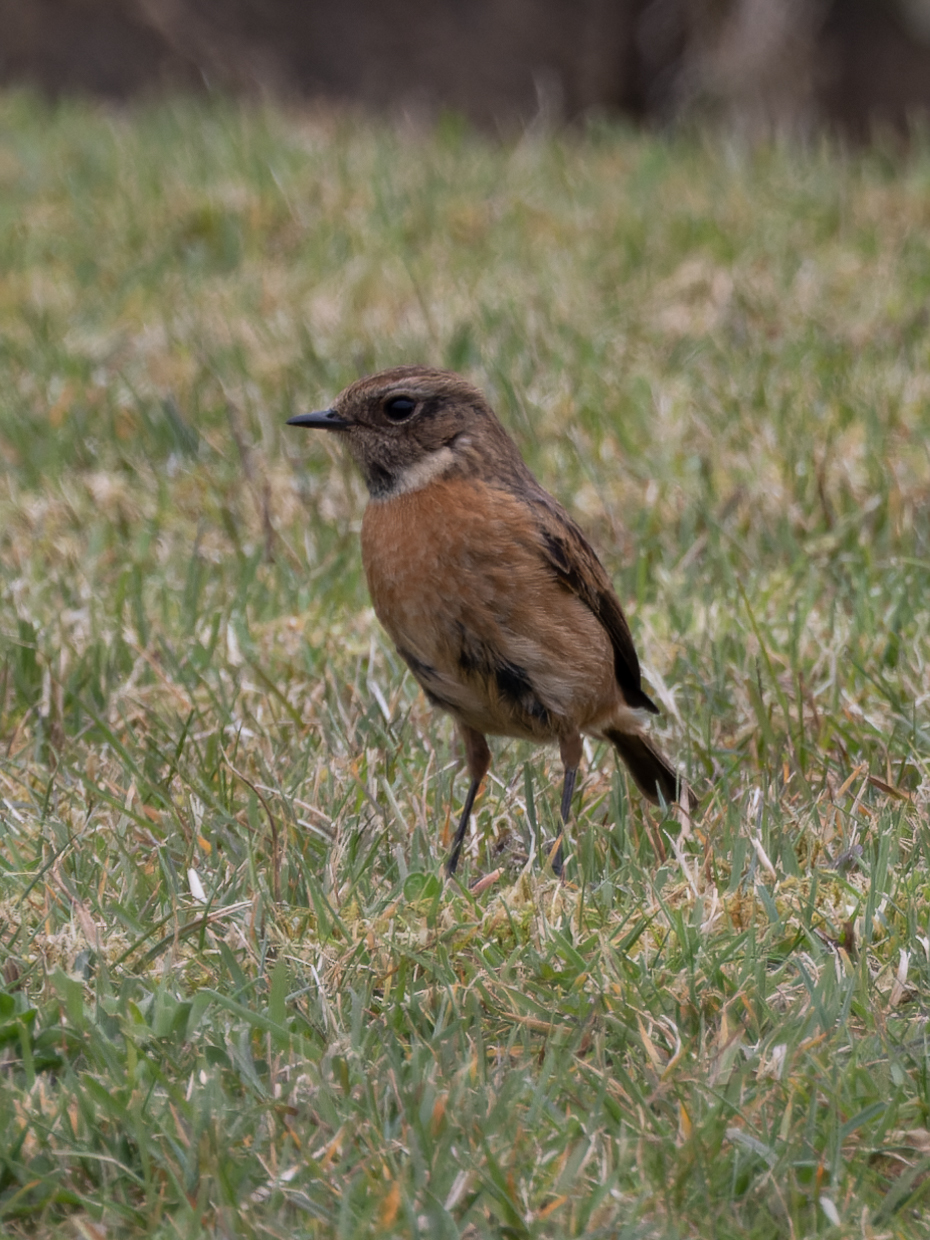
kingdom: Animalia
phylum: Chordata
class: Aves
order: Passeriformes
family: Muscicapidae
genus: Saxicola
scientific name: Saxicola rubicola
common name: European stonechat
